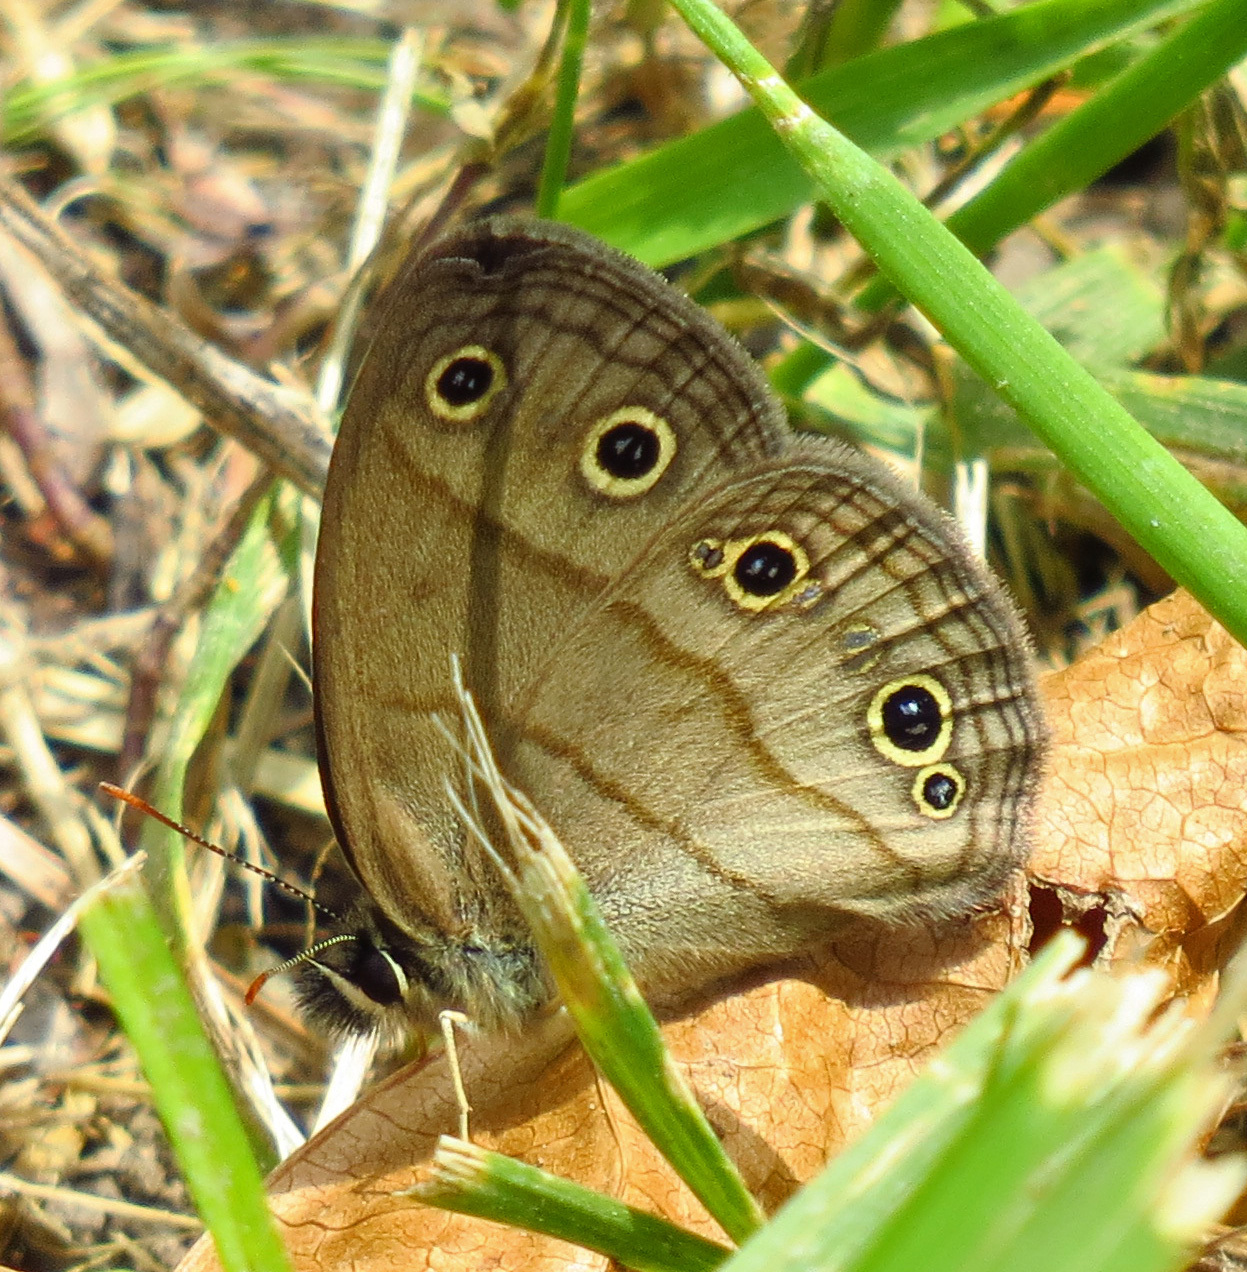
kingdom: Animalia
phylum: Arthropoda
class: Insecta
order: Lepidoptera
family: Nymphalidae
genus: Euptychia
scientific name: Euptychia cymela
